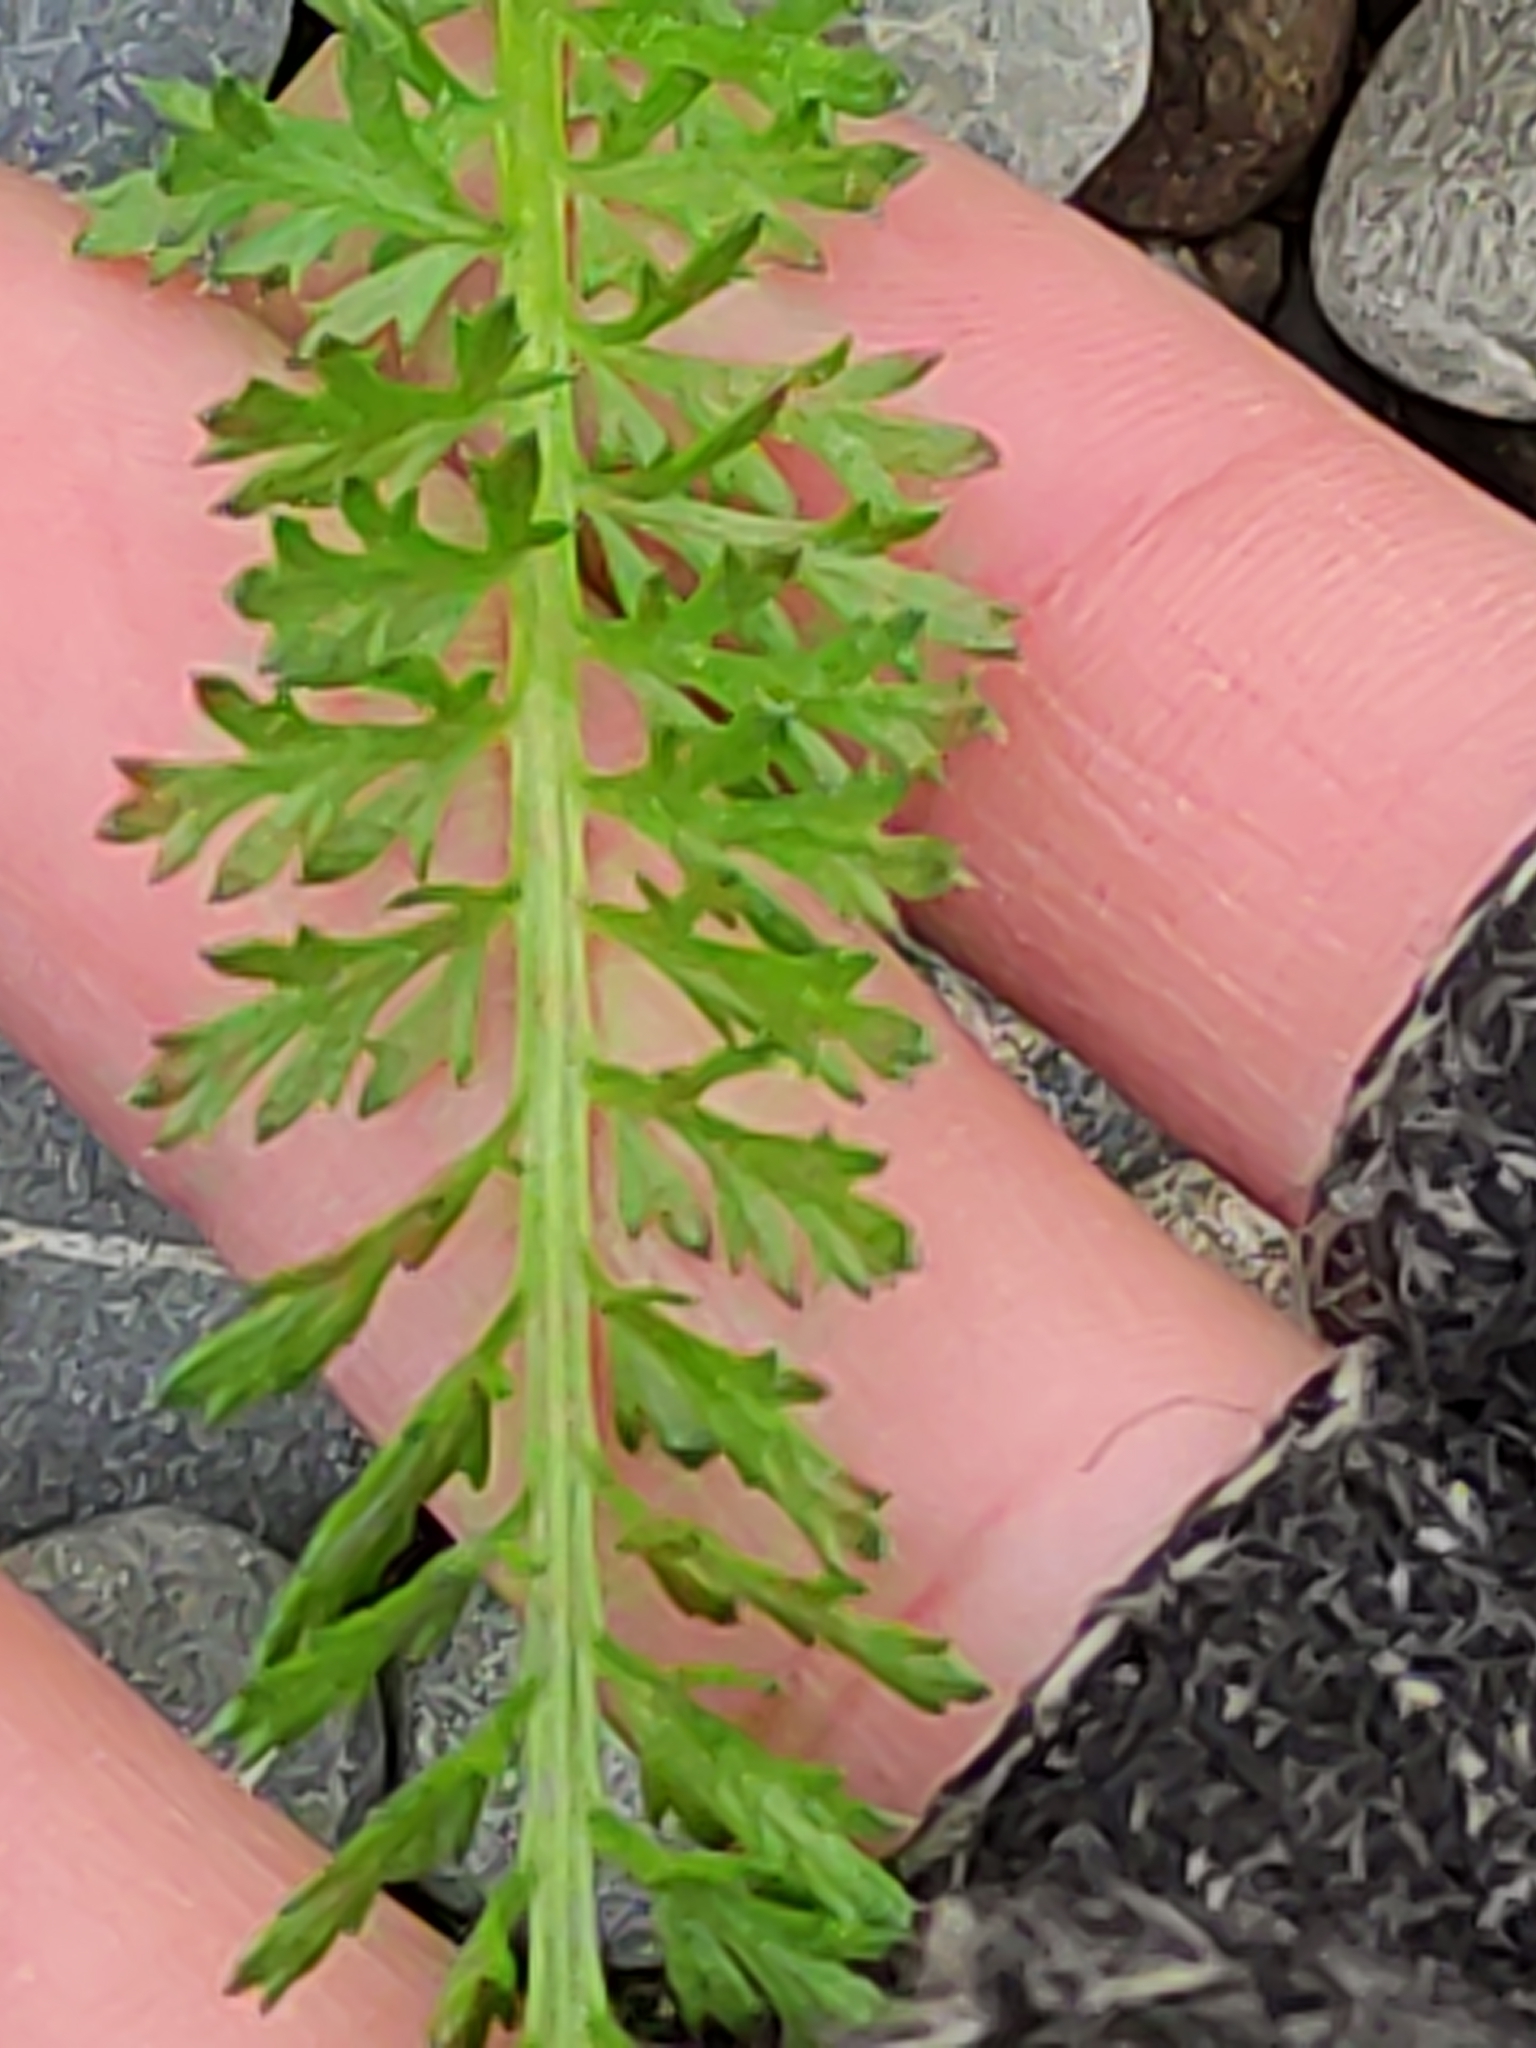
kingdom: Plantae
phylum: Tracheophyta
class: Magnoliopsida
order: Asterales
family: Asteraceae
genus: Achillea
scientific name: Achillea millefolium
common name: Yarrow
